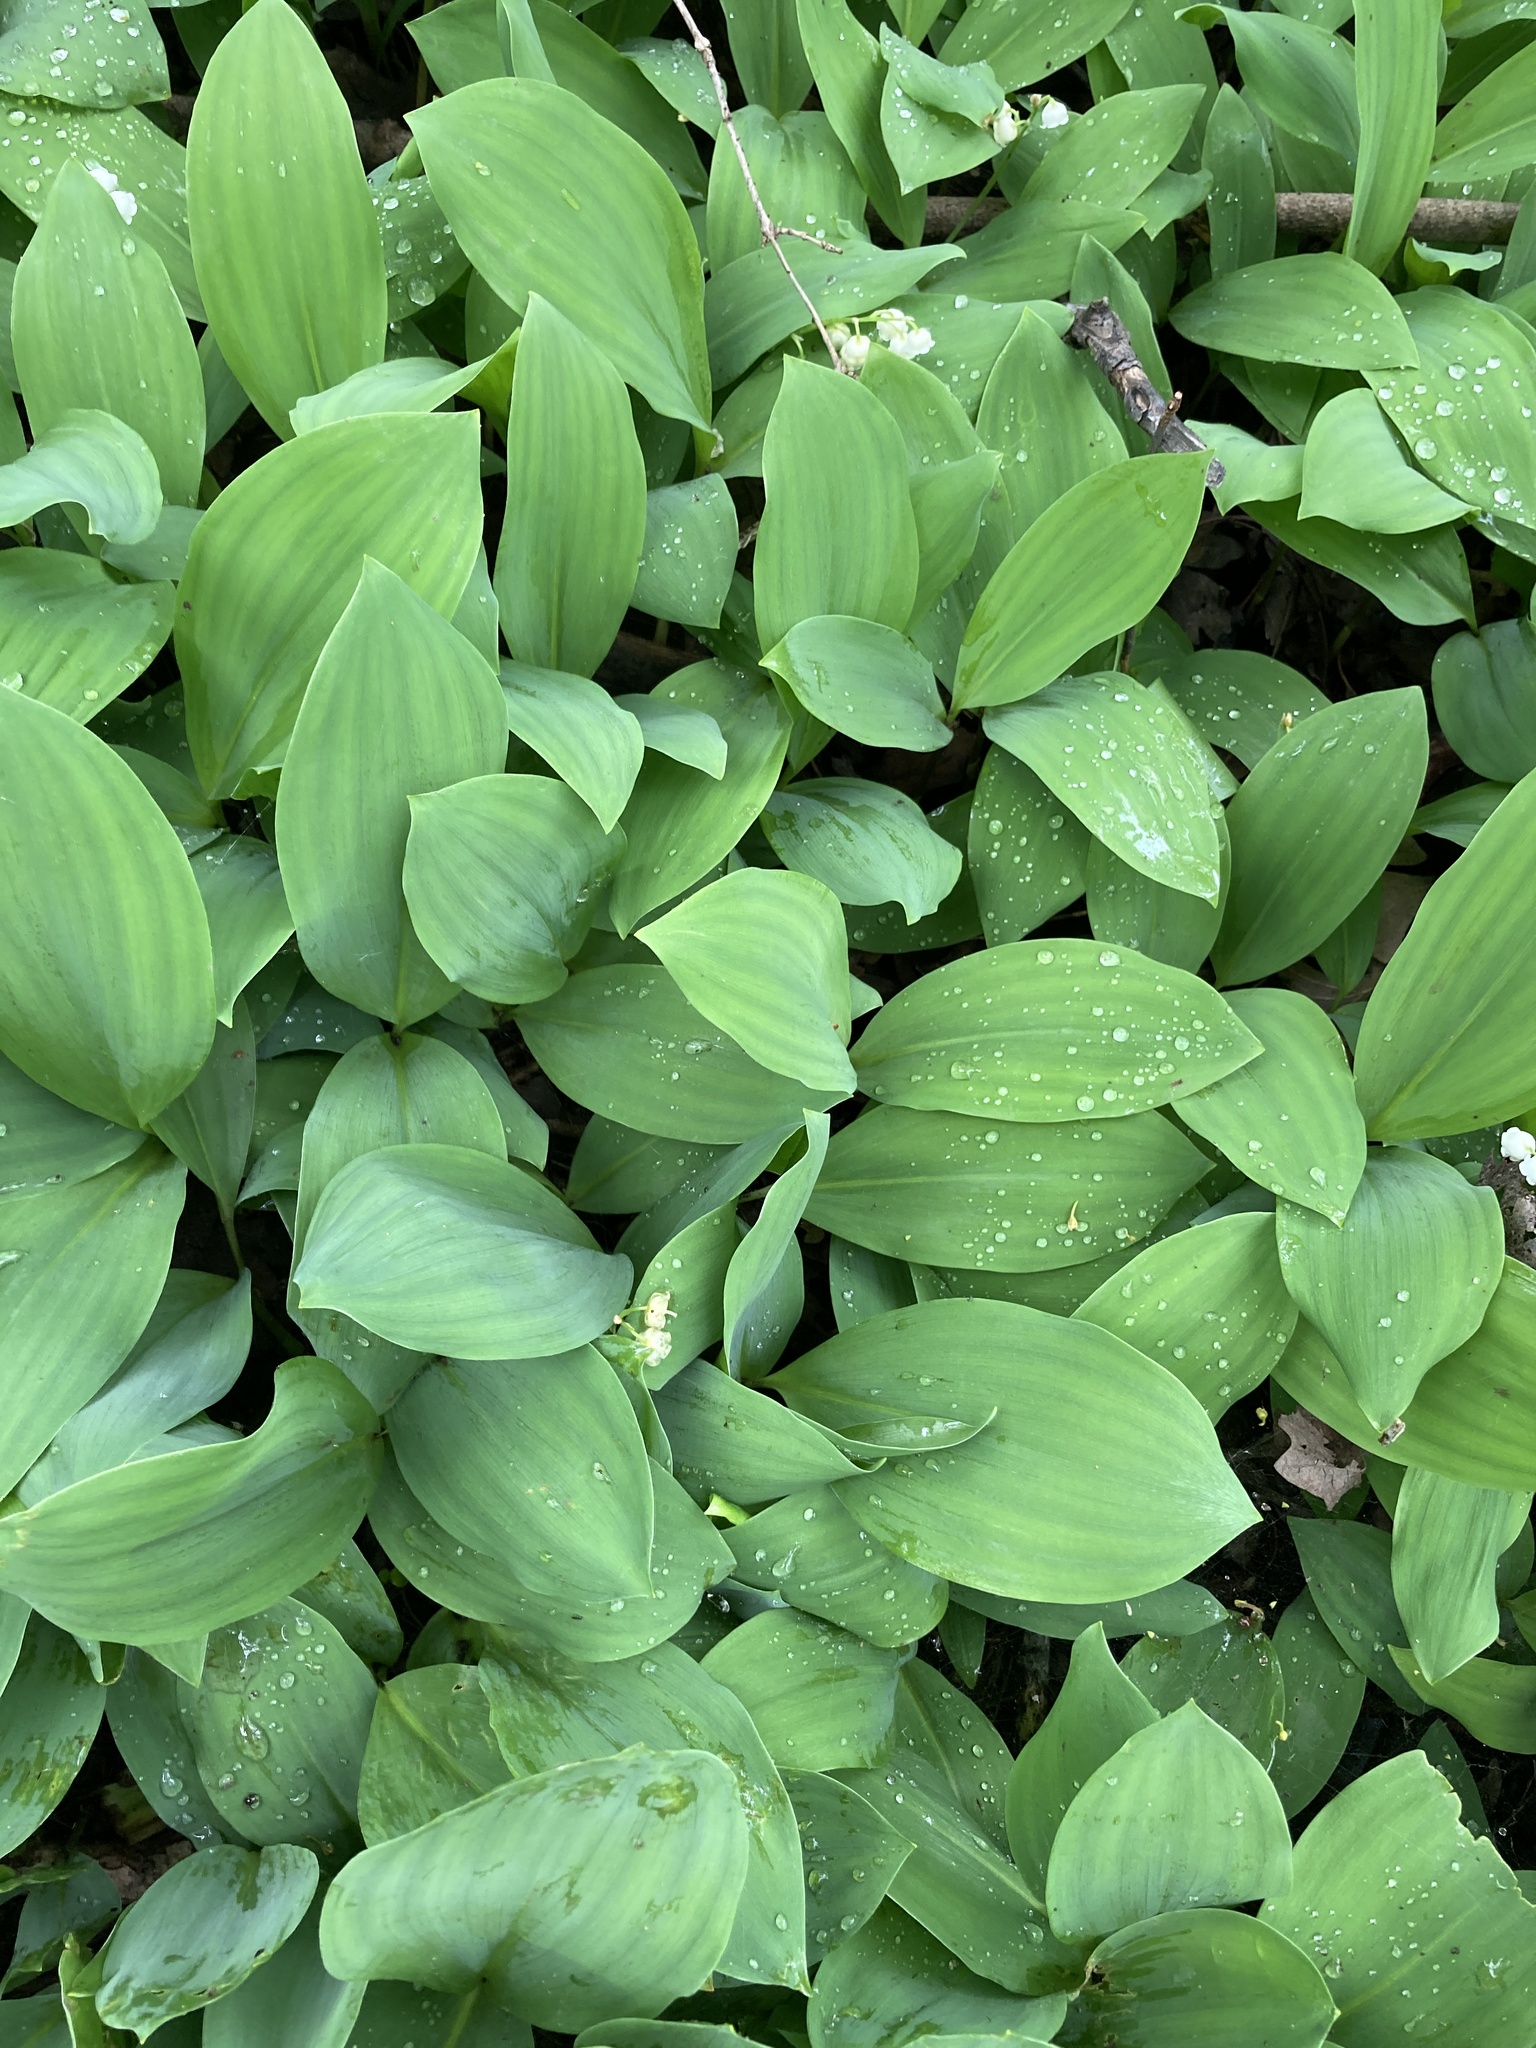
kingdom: Plantae
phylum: Tracheophyta
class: Liliopsida
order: Asparagales
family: Asparagaceae
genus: Convallaria
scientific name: Convallaria majalis
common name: Lily-of-the-valley
